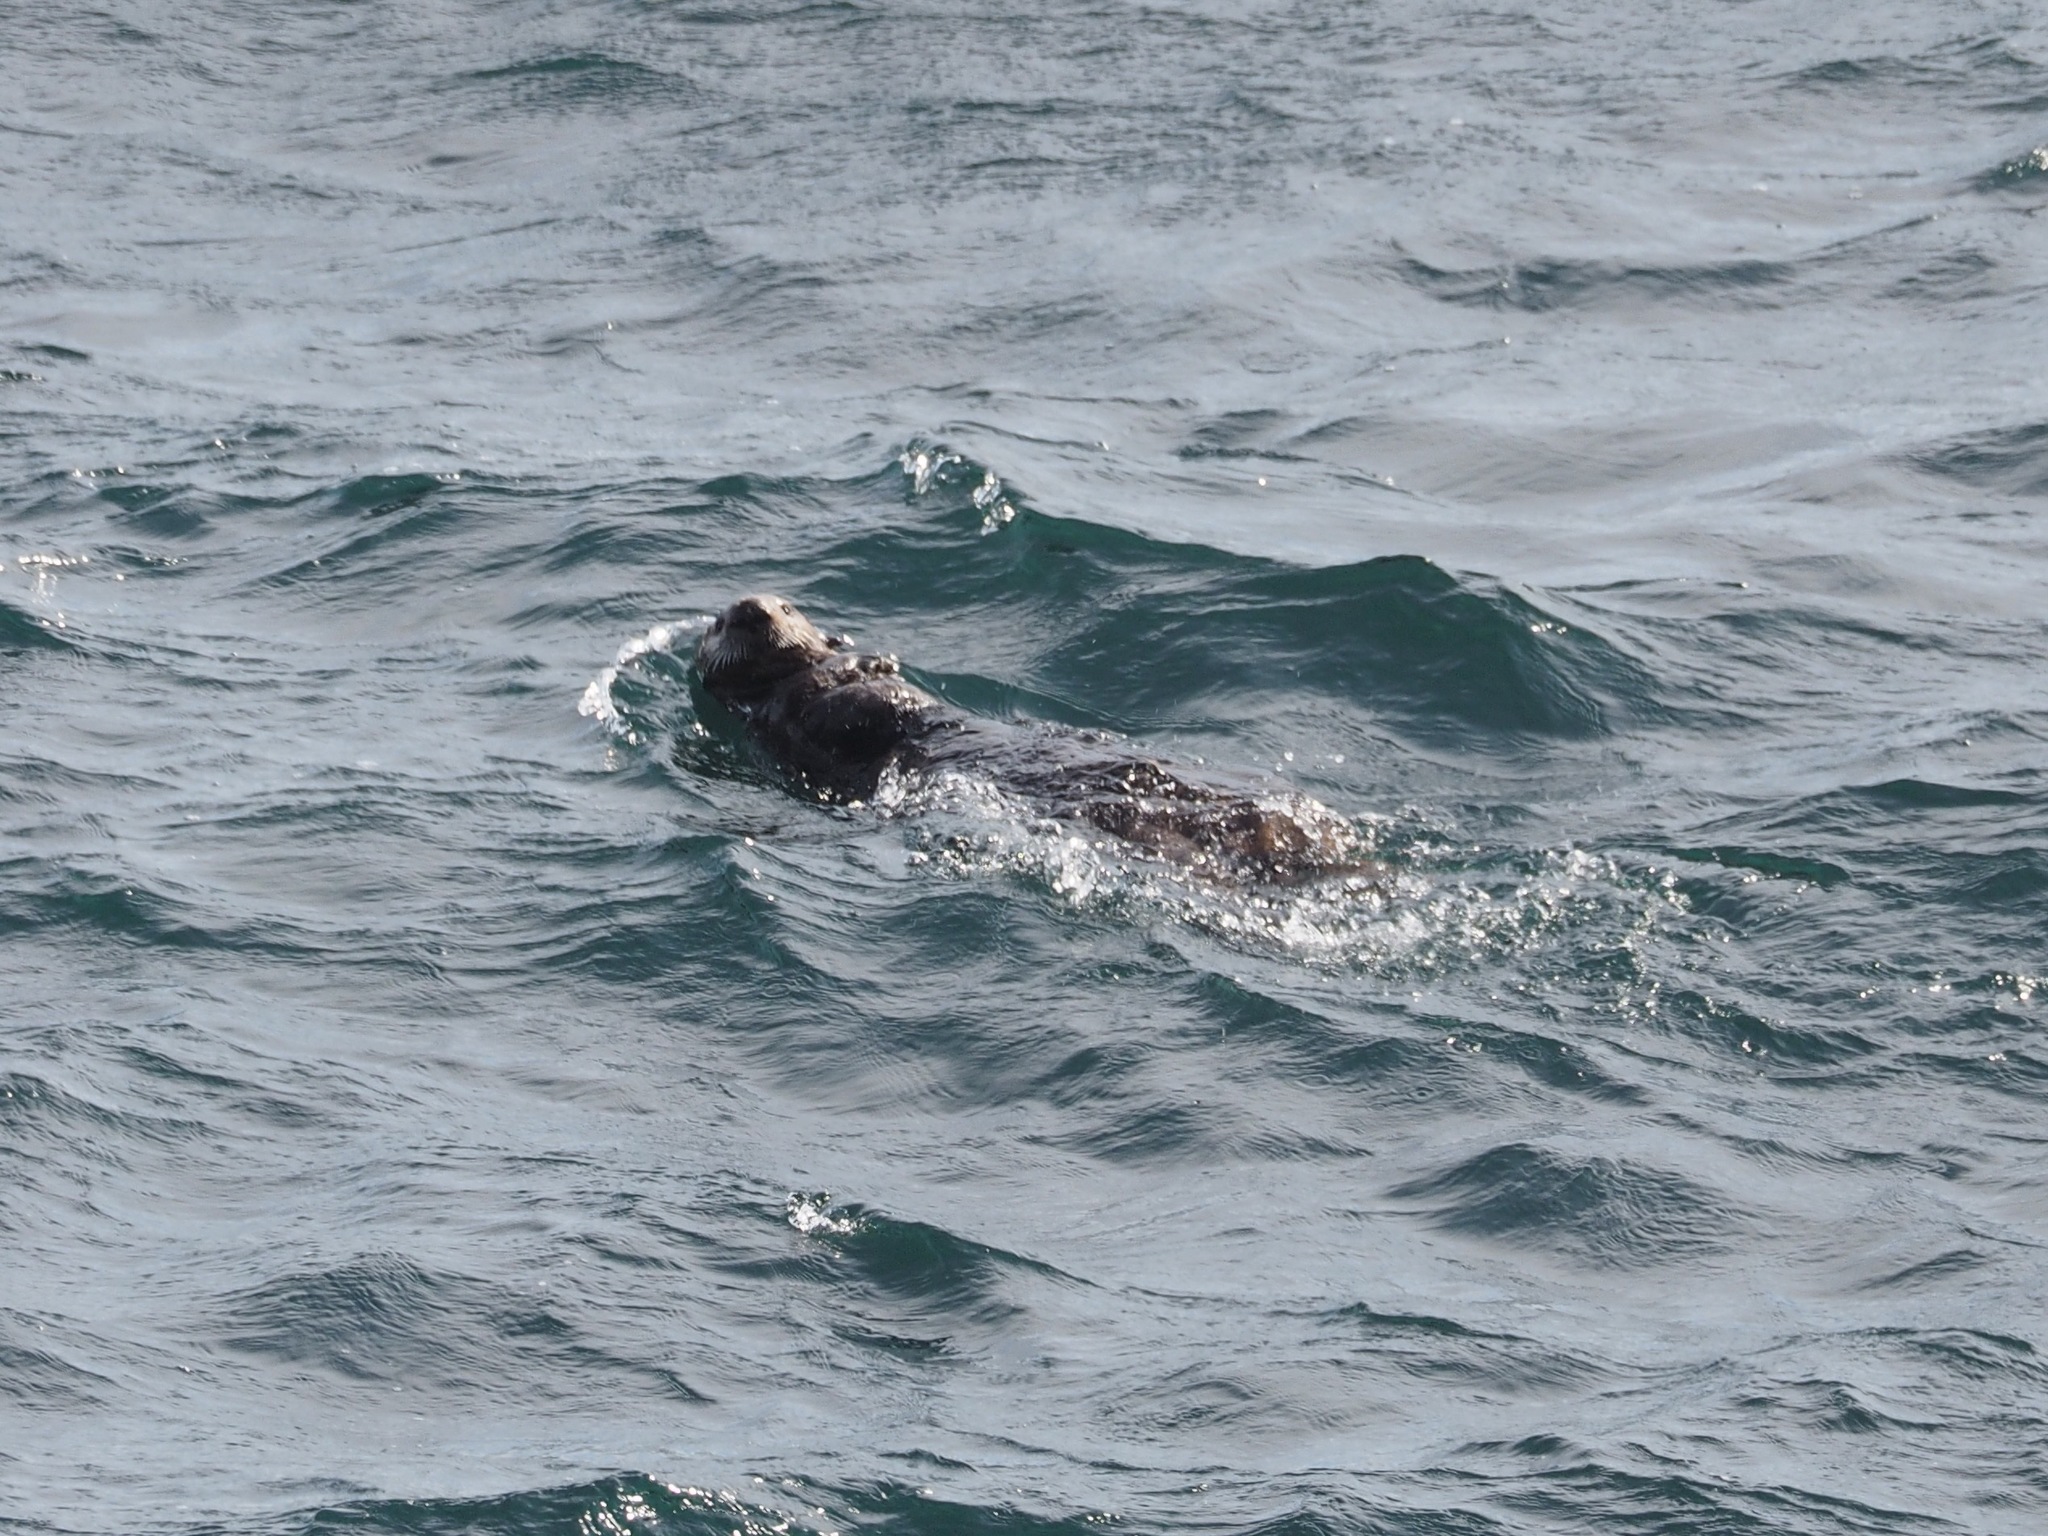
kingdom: Animalia
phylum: Chordata
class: Mammalia
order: Carnivora
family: Mustelidae
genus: Enhydra
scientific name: Enhydra lutris
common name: Sea otter
